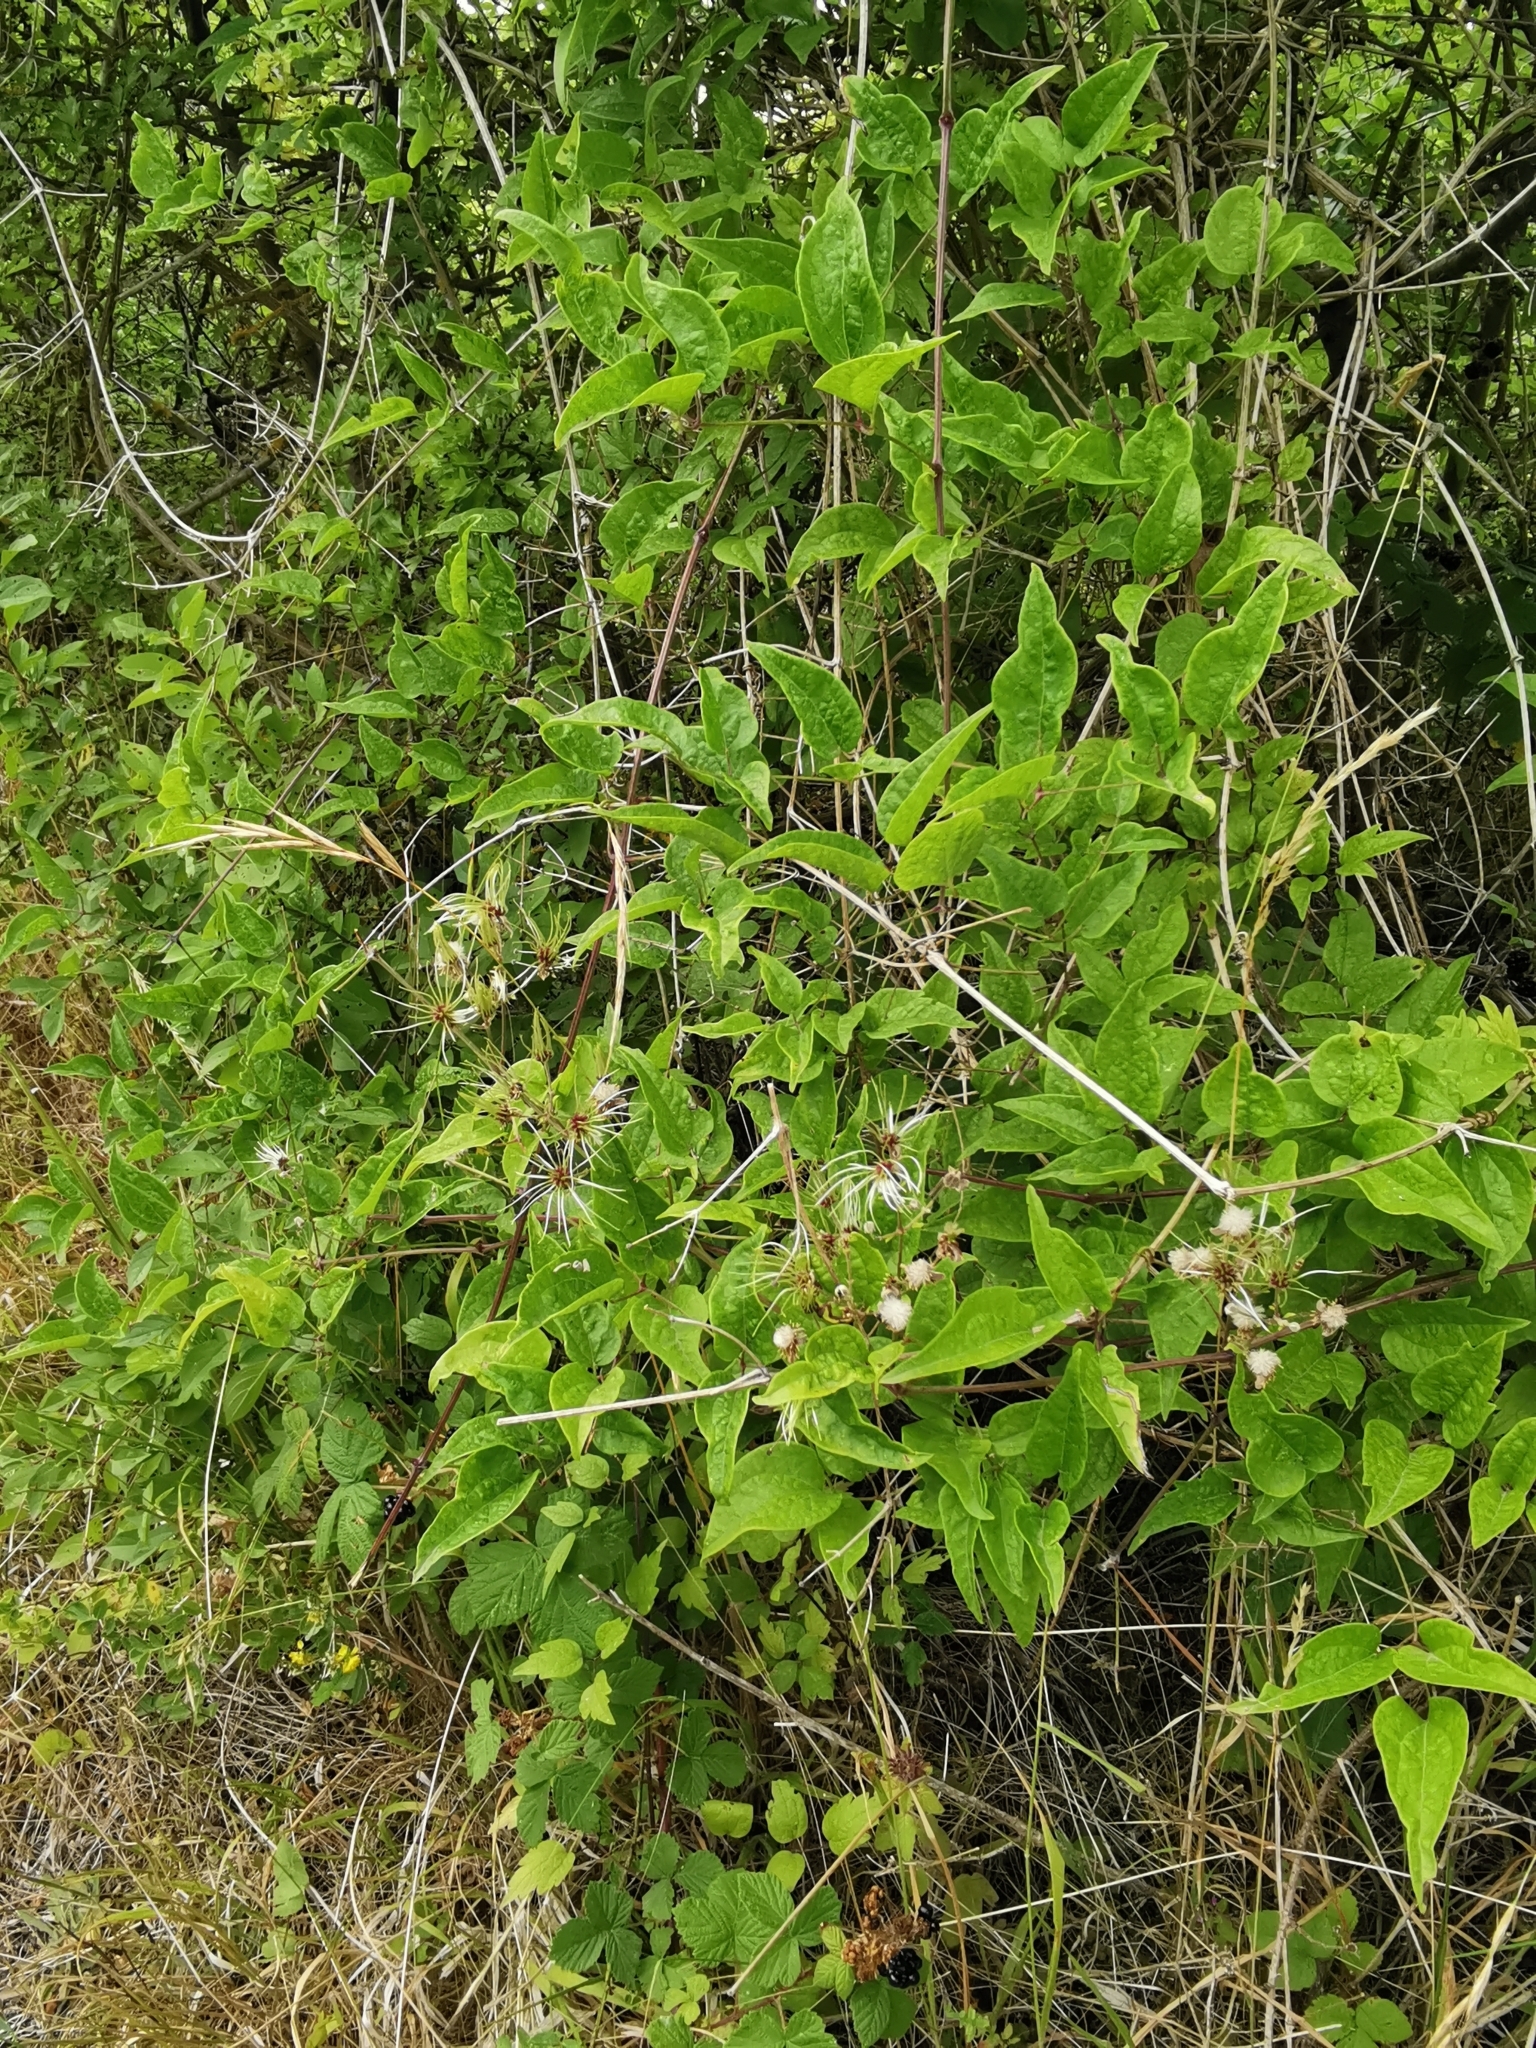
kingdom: Plantae
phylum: Tracheophyta
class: Magnoliopsida
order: Ranunculales
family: Ranunculaceae
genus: Clematis
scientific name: Clematis vitalba
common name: Evergreen clematis
